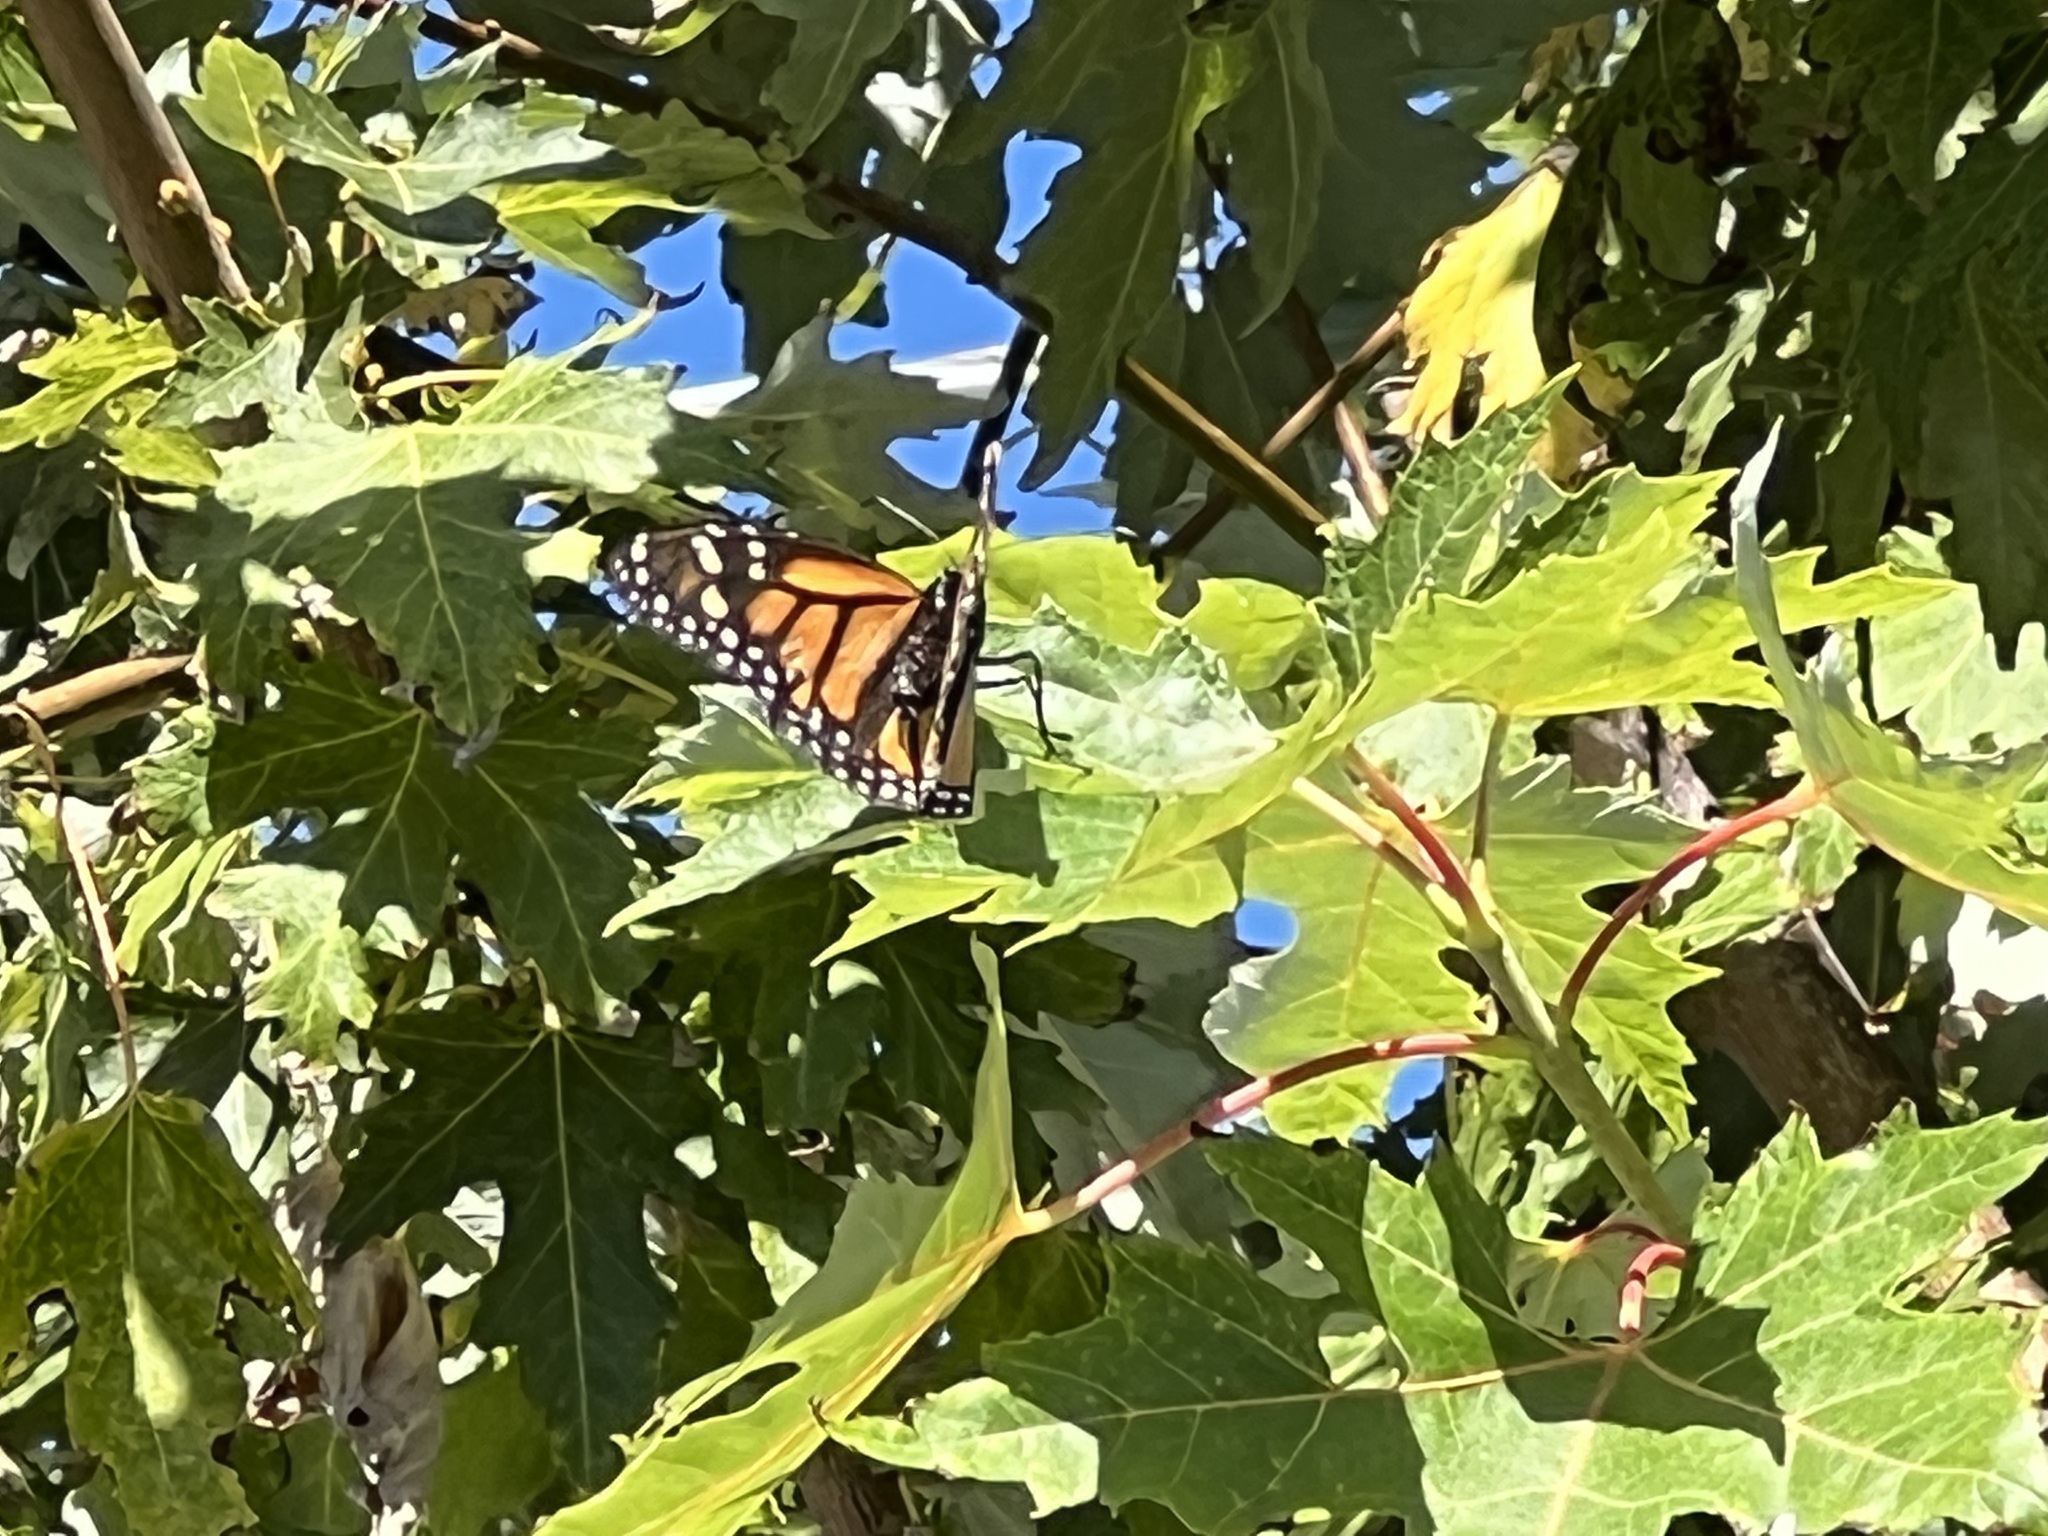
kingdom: Animalia
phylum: Arthropoda
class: Insecta
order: Lepidoptera
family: Nymphalidae
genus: Danaus
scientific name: Danaus plexippus
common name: Monarch
